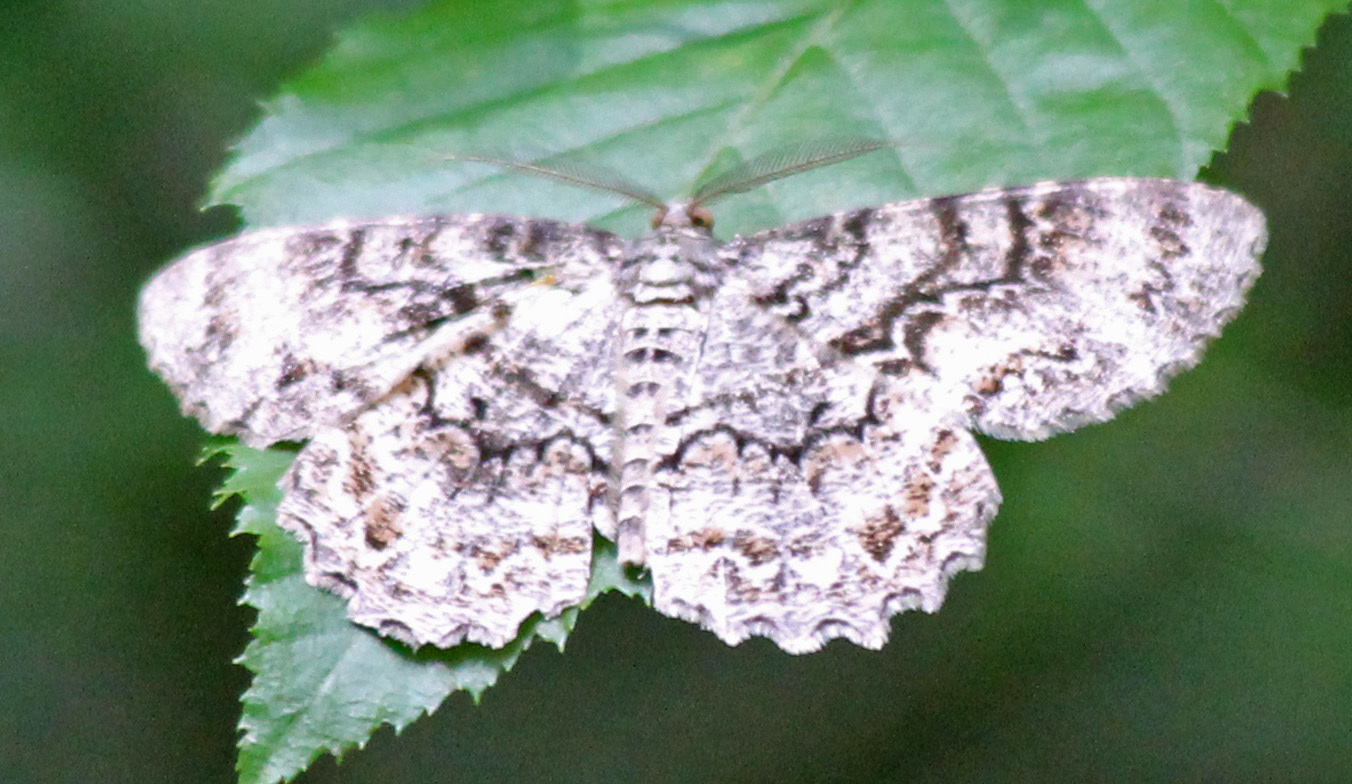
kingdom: Animalia
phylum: Arthropoda
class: Insecta
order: Lepidoptera
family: Geometridae
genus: Epimecis
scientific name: Epimecis hortaria
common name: Tulip-tree beauty
